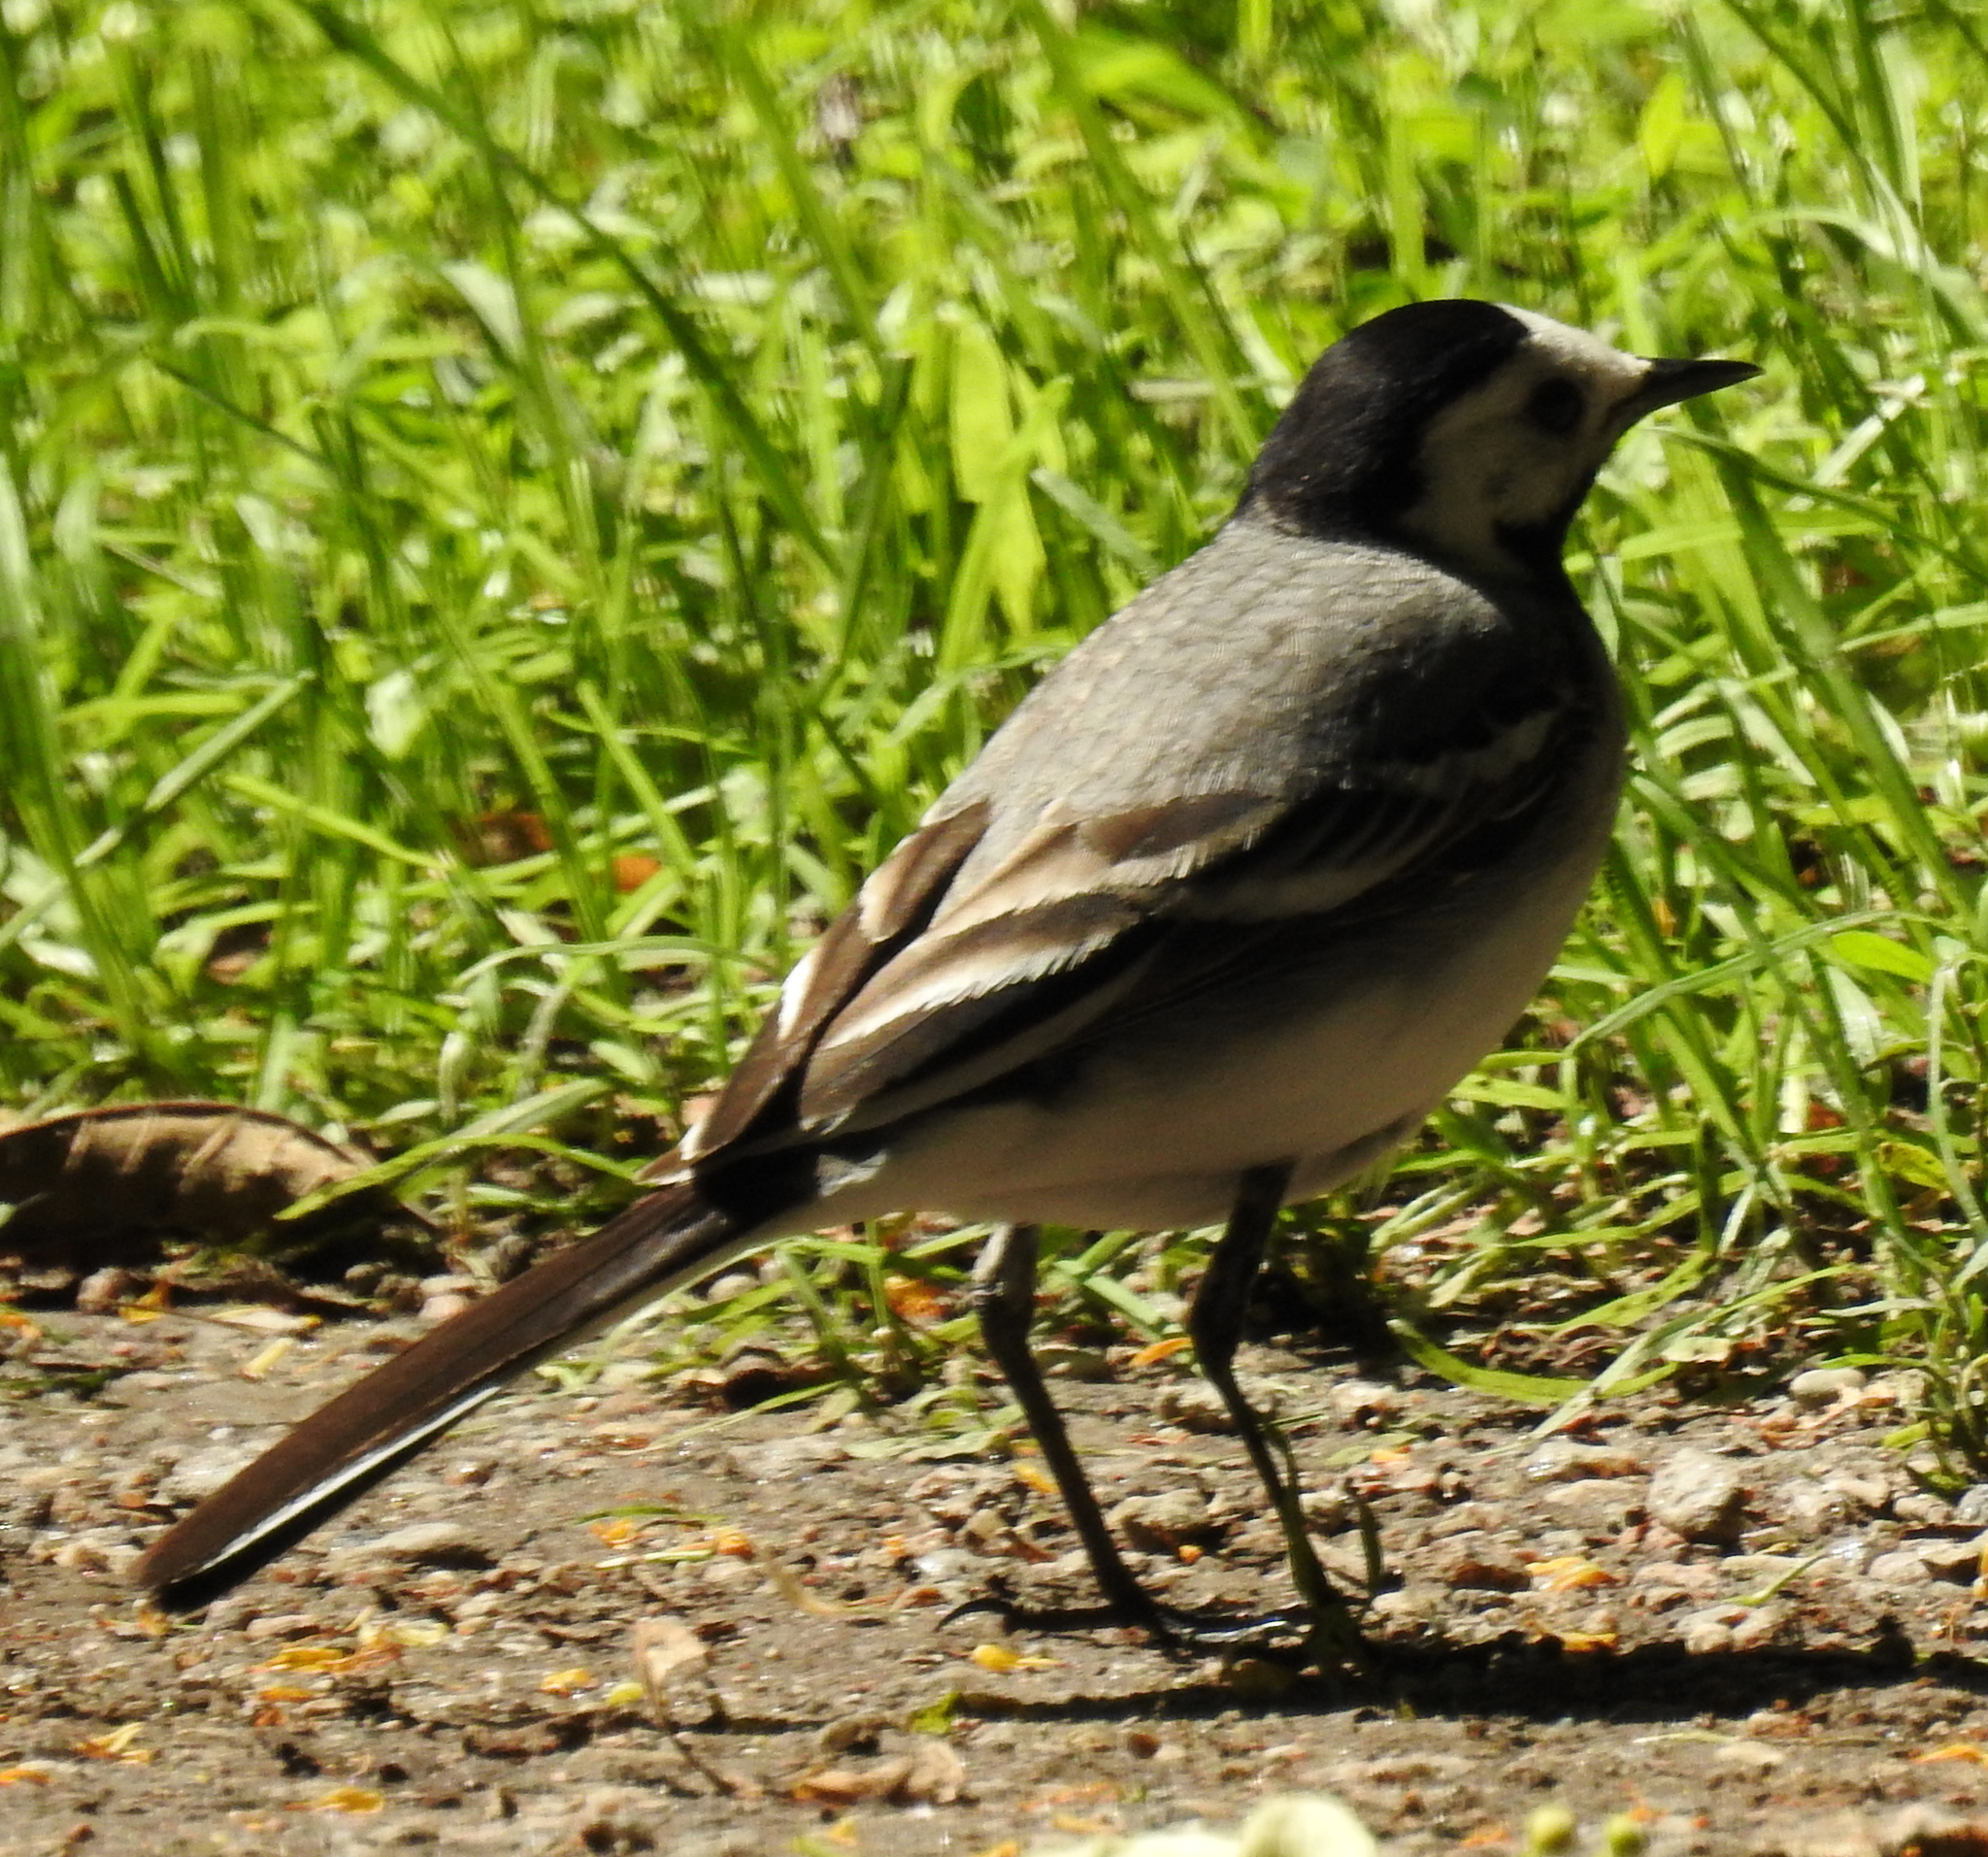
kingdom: Animalia
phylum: Chordata
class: Aves
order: Passeriformes
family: Motacillidae
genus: Motacilla
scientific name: Motacilla alba
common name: White wagtail
